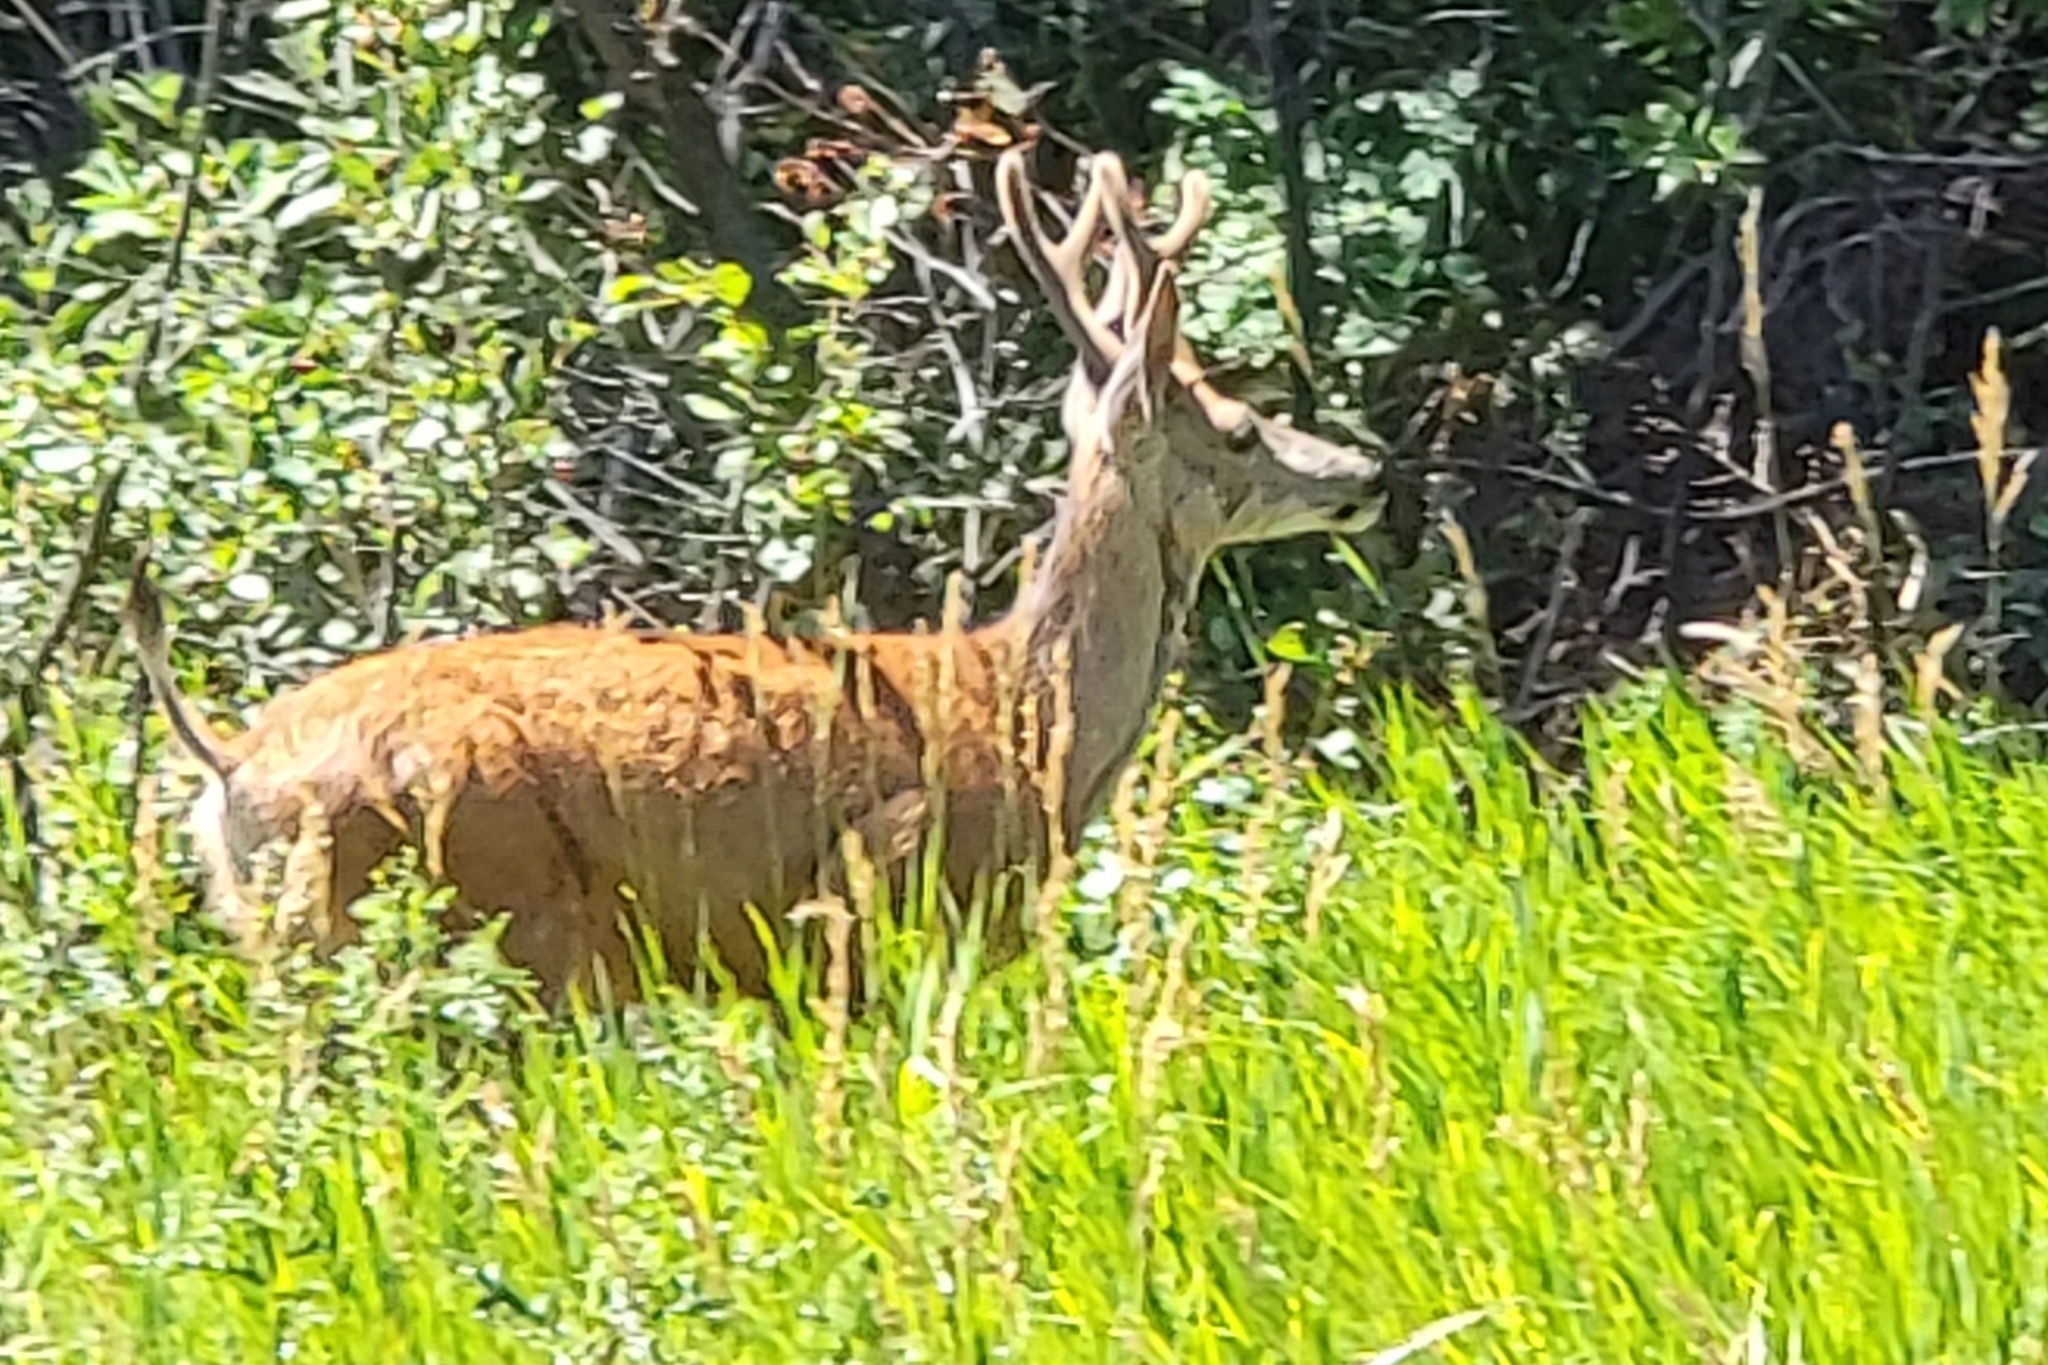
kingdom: Animalia
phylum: Chordata
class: Mammalia
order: Artiodactyla
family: Cervidae
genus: Odocoileus
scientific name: Odocoileus hemionus
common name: Mule deer
